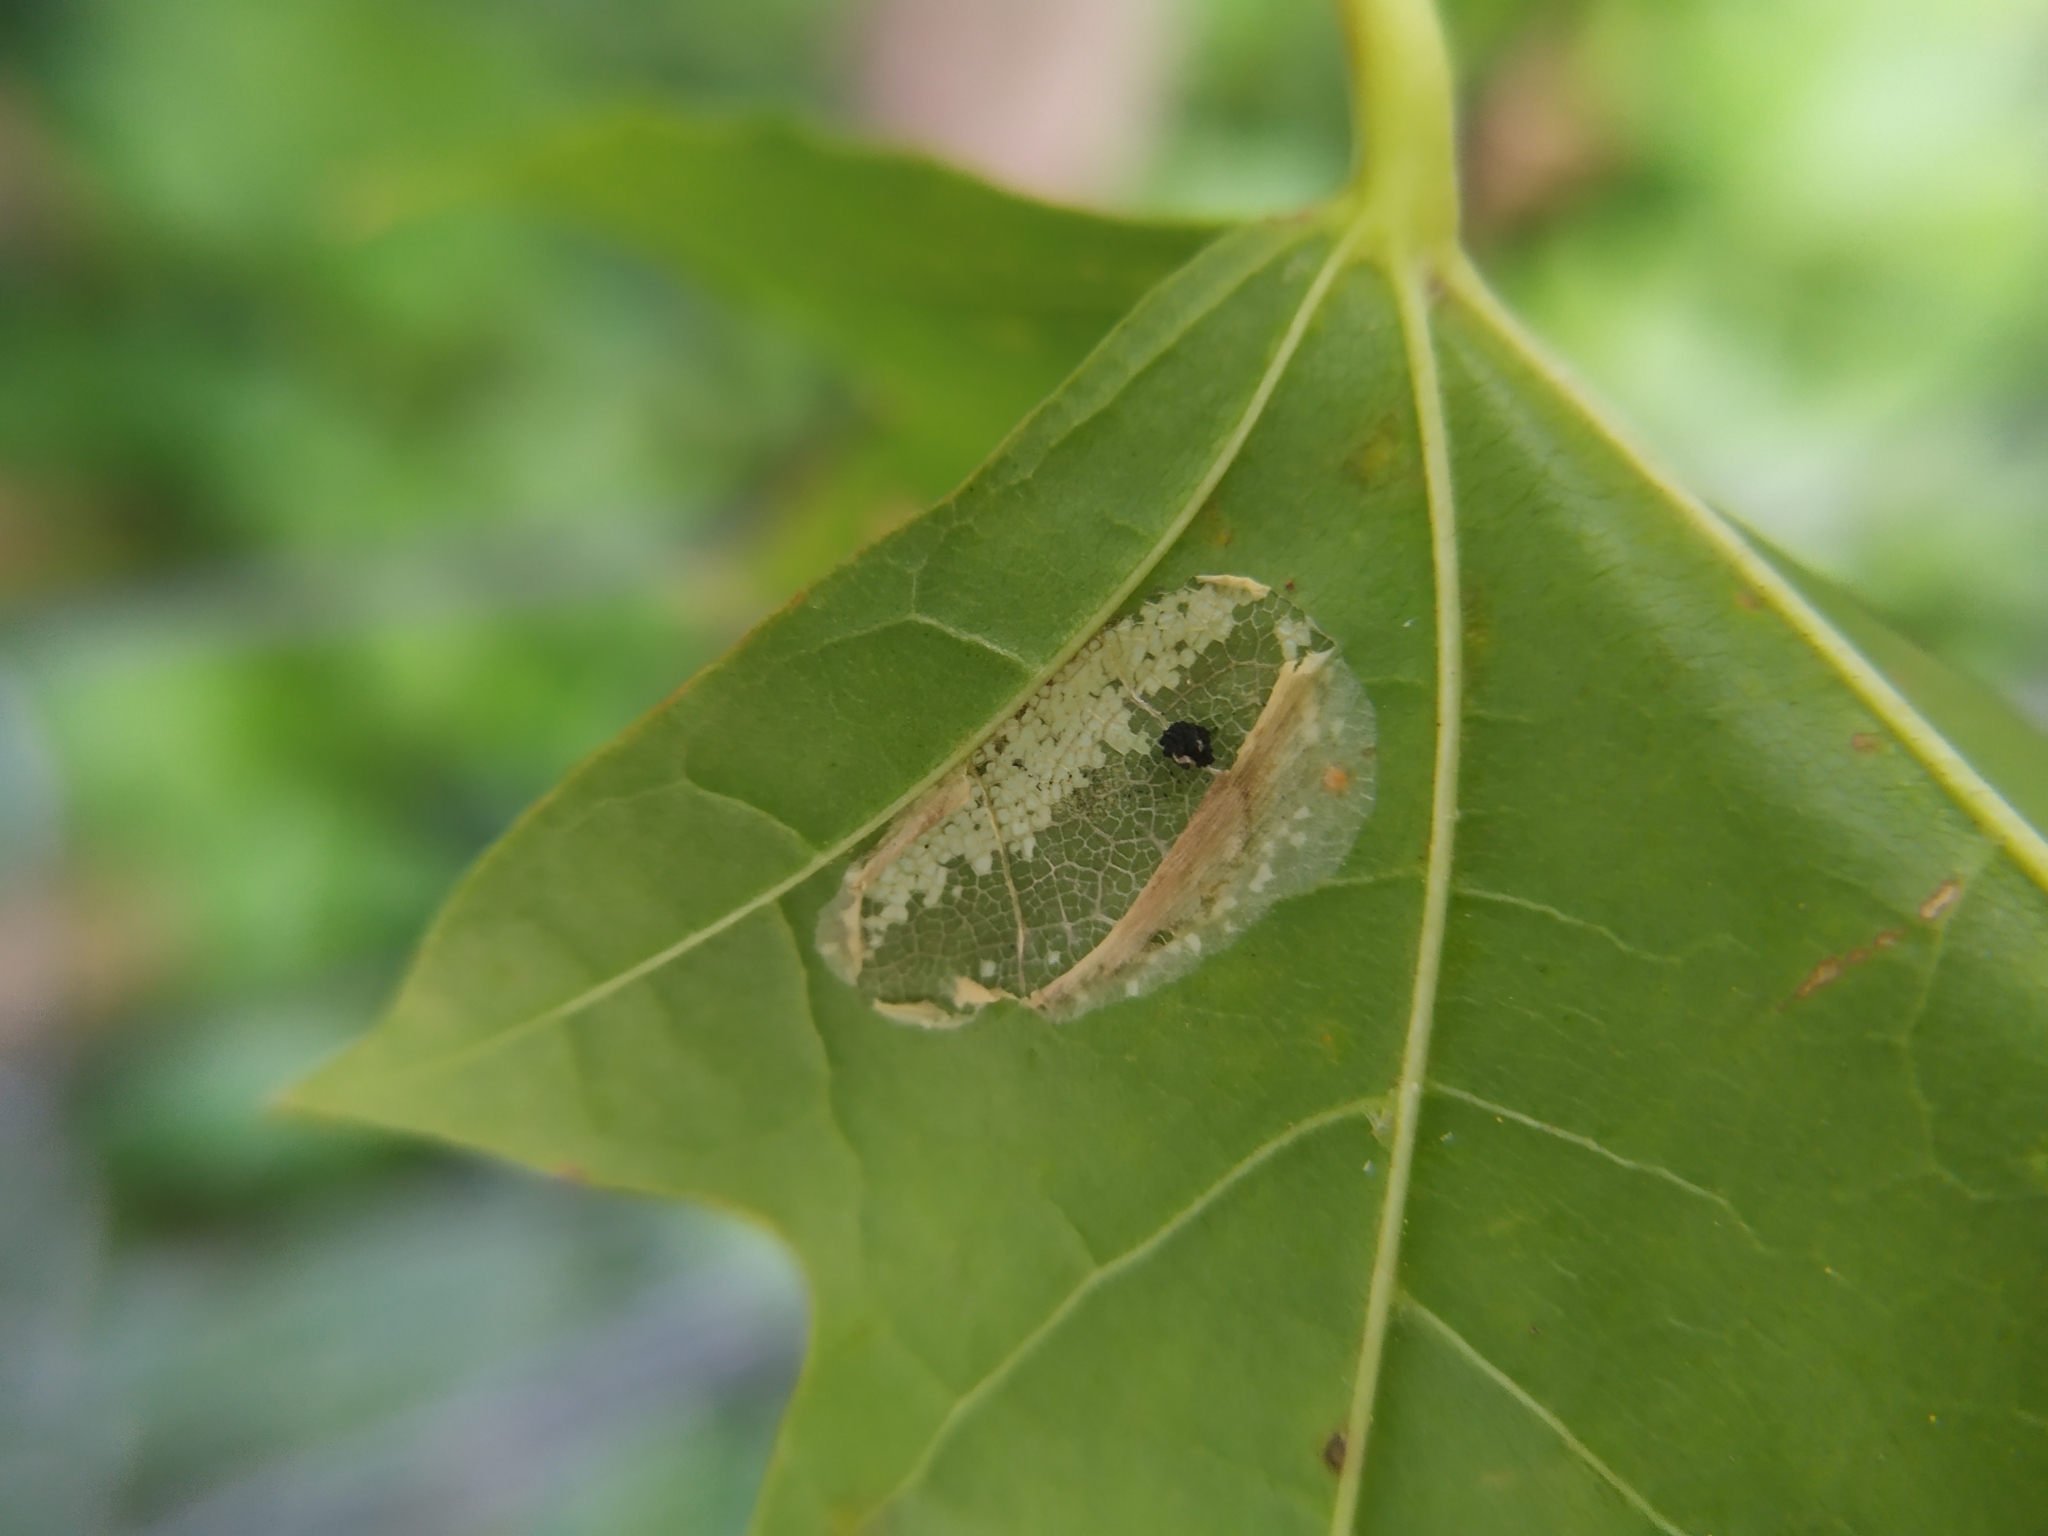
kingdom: Animalia
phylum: Arthropoda
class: Insecta
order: Lepidoptera
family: Gracillariidae
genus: Phyllonorycter
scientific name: Phyllonorycter joannisi
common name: White-bodied midget
